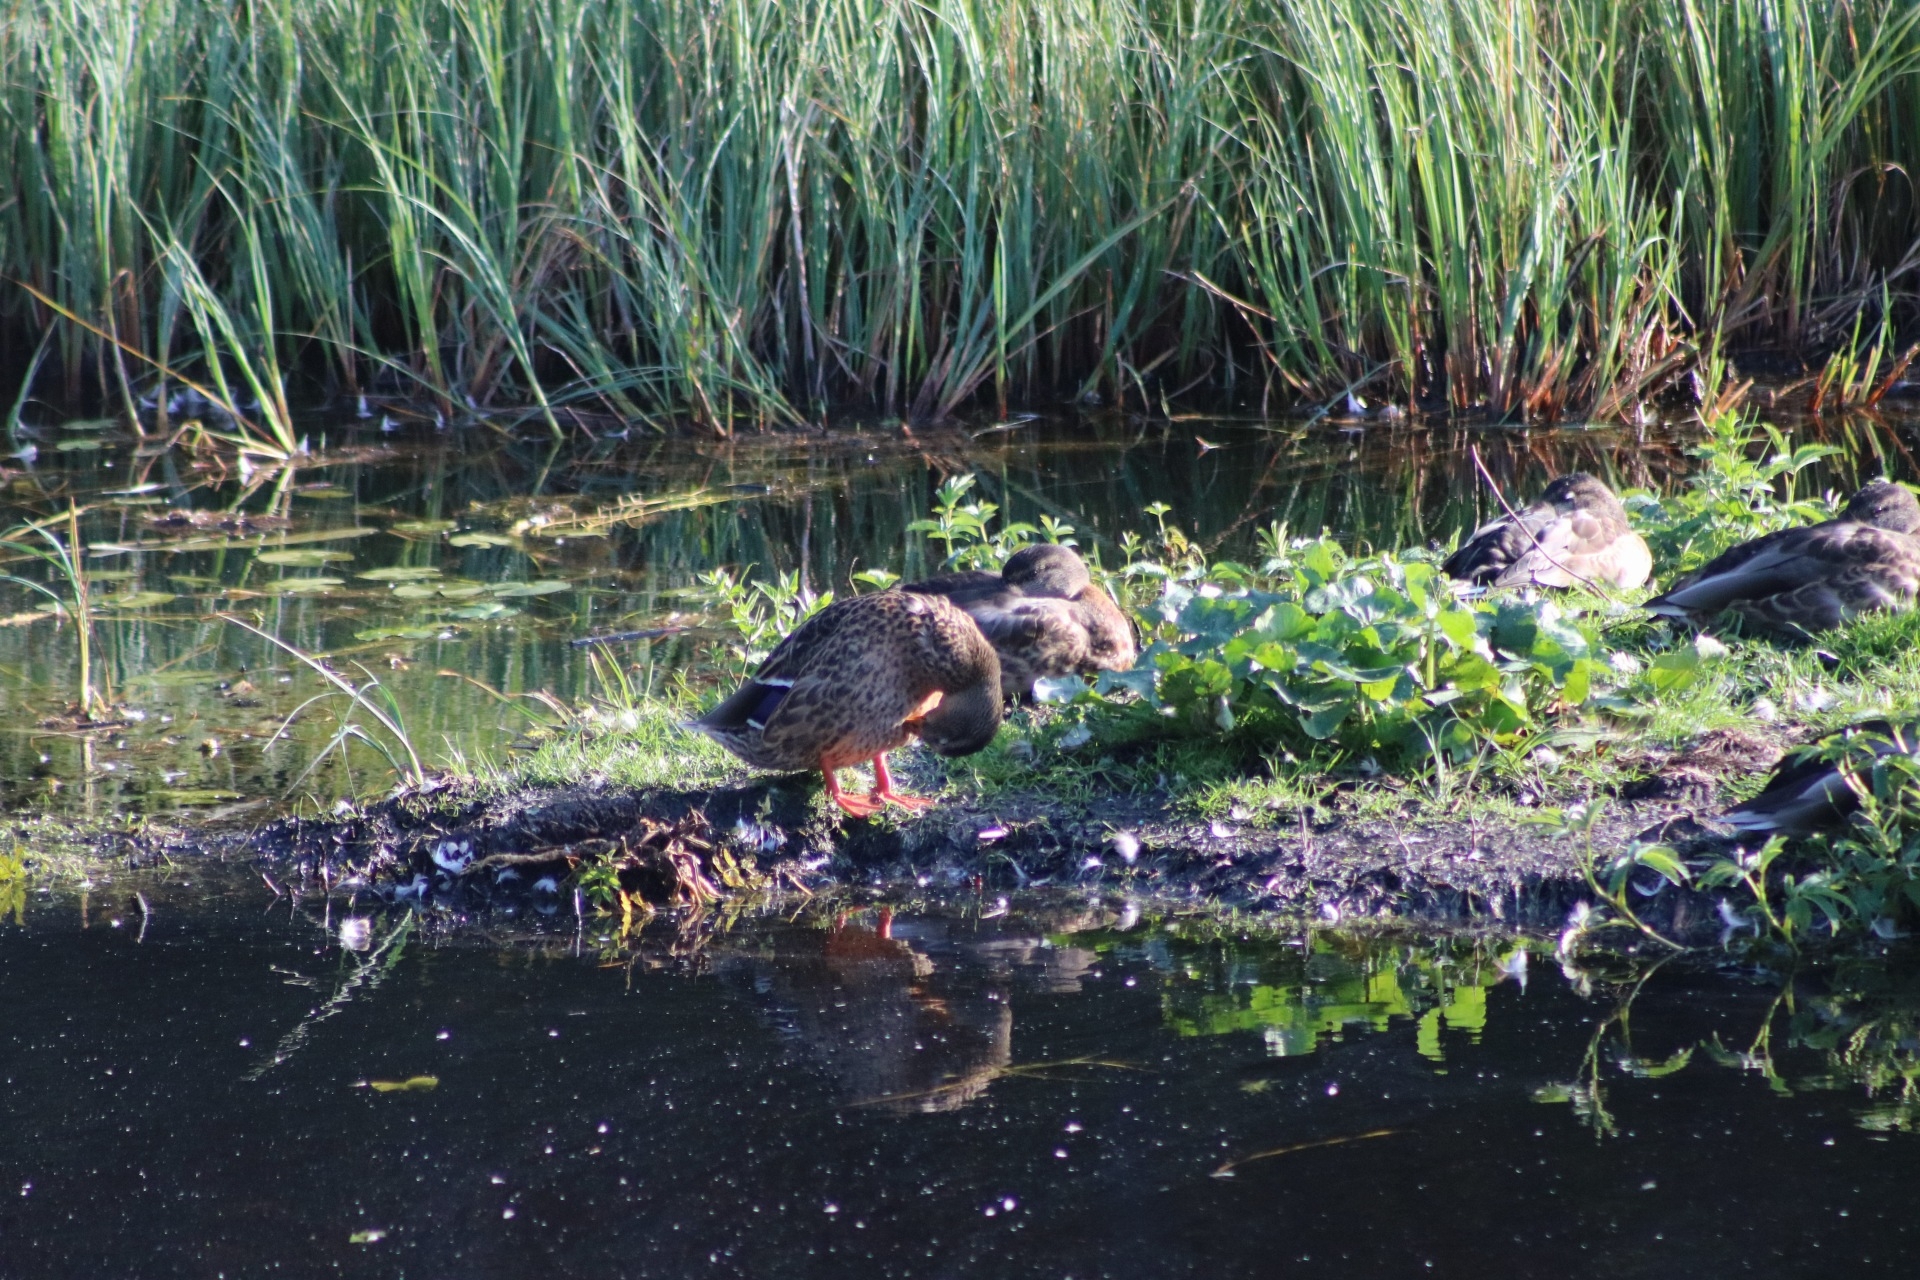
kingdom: Animalia
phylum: Chordata
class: Aves
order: Anseriformes
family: Anatidae
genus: Anas
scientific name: Anas platyrhynchos
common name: Mallard
